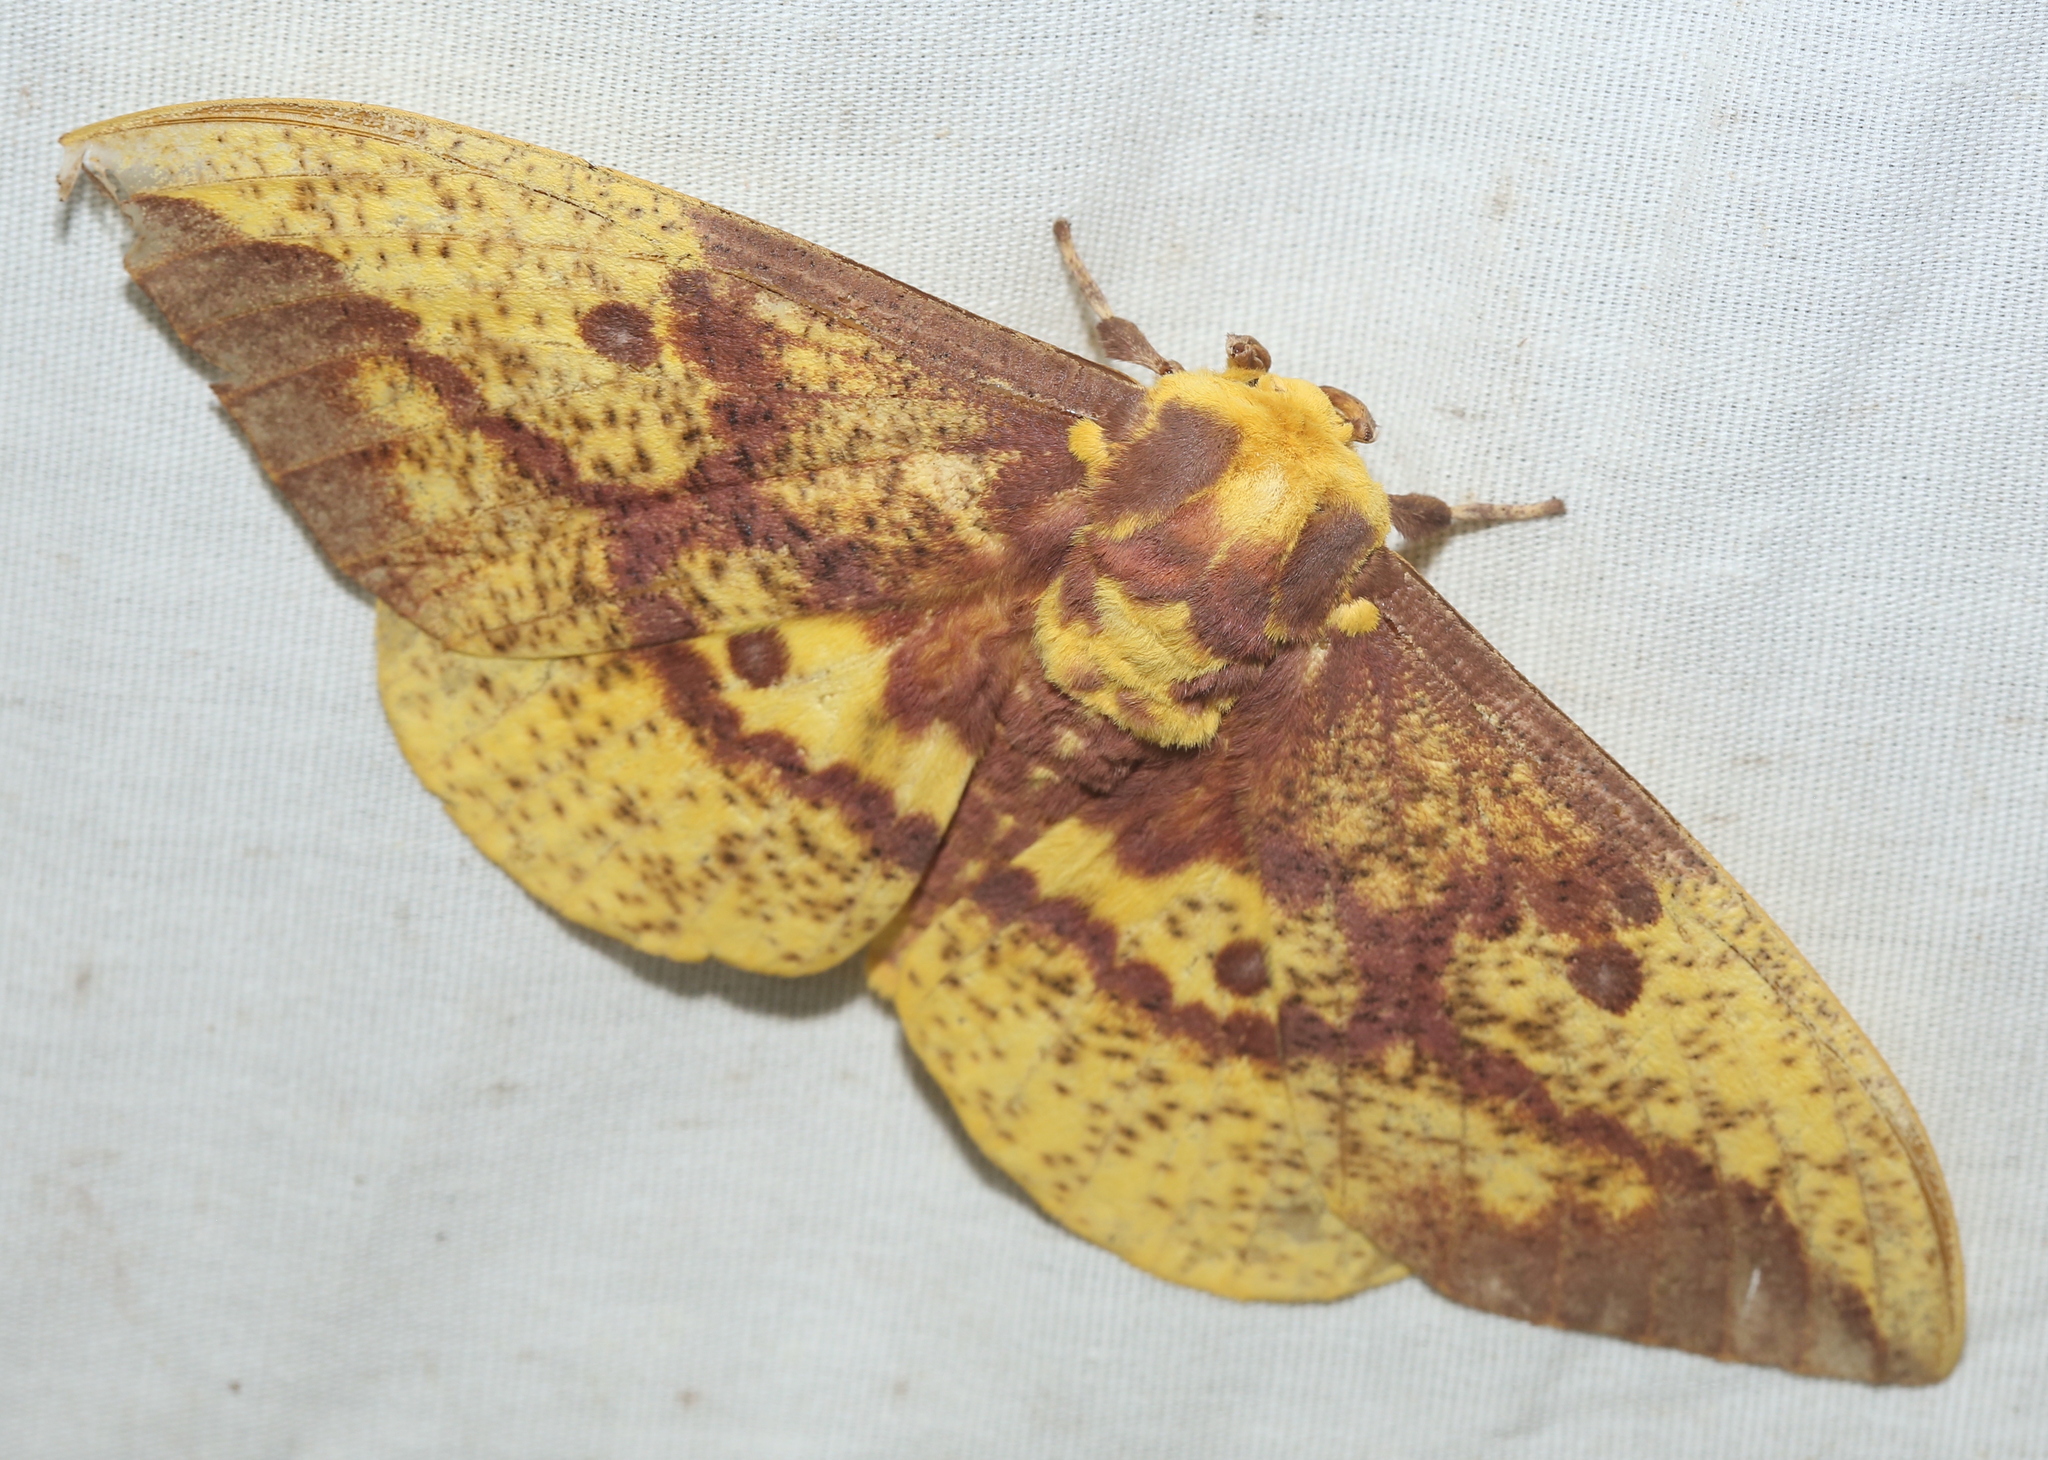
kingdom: Animalia
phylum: Arthropoda
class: Insecta
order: Lepidoptera
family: Saturniidae
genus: Eacles
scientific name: Eacles imperialis
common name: Imperial moth
